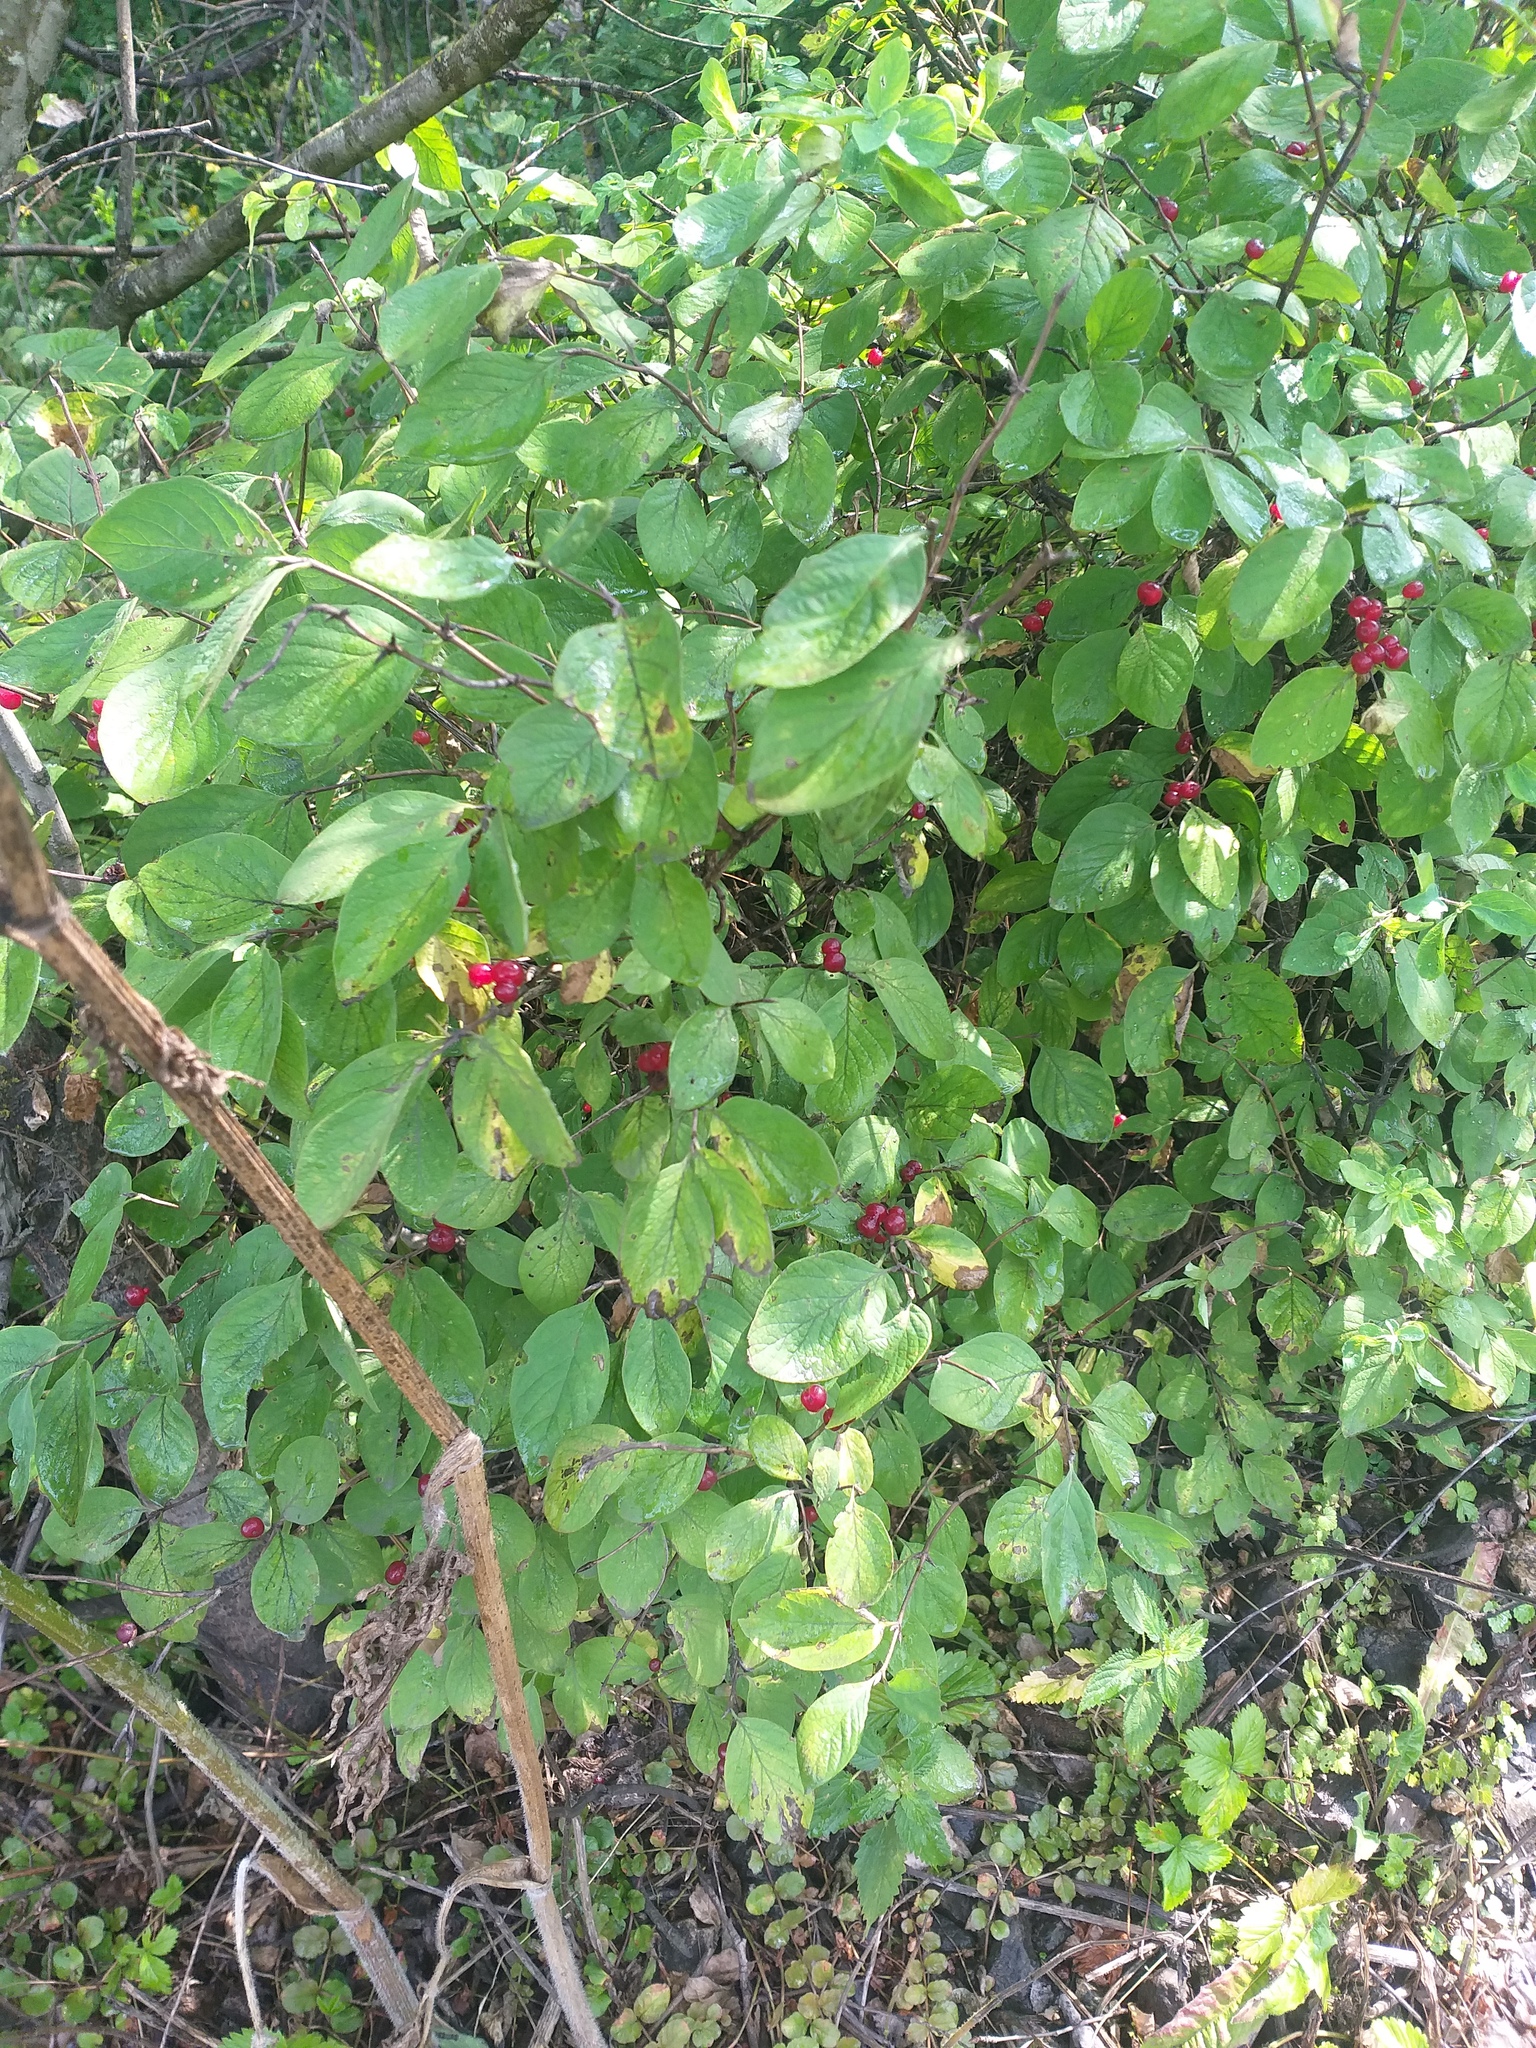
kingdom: Plantae
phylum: Tracheophyta
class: Magnoliopsida
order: Dipsacales
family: Caprifoliaceae
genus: Lonicera
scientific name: Lonicera xylosteum
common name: Fly honeysuckle
